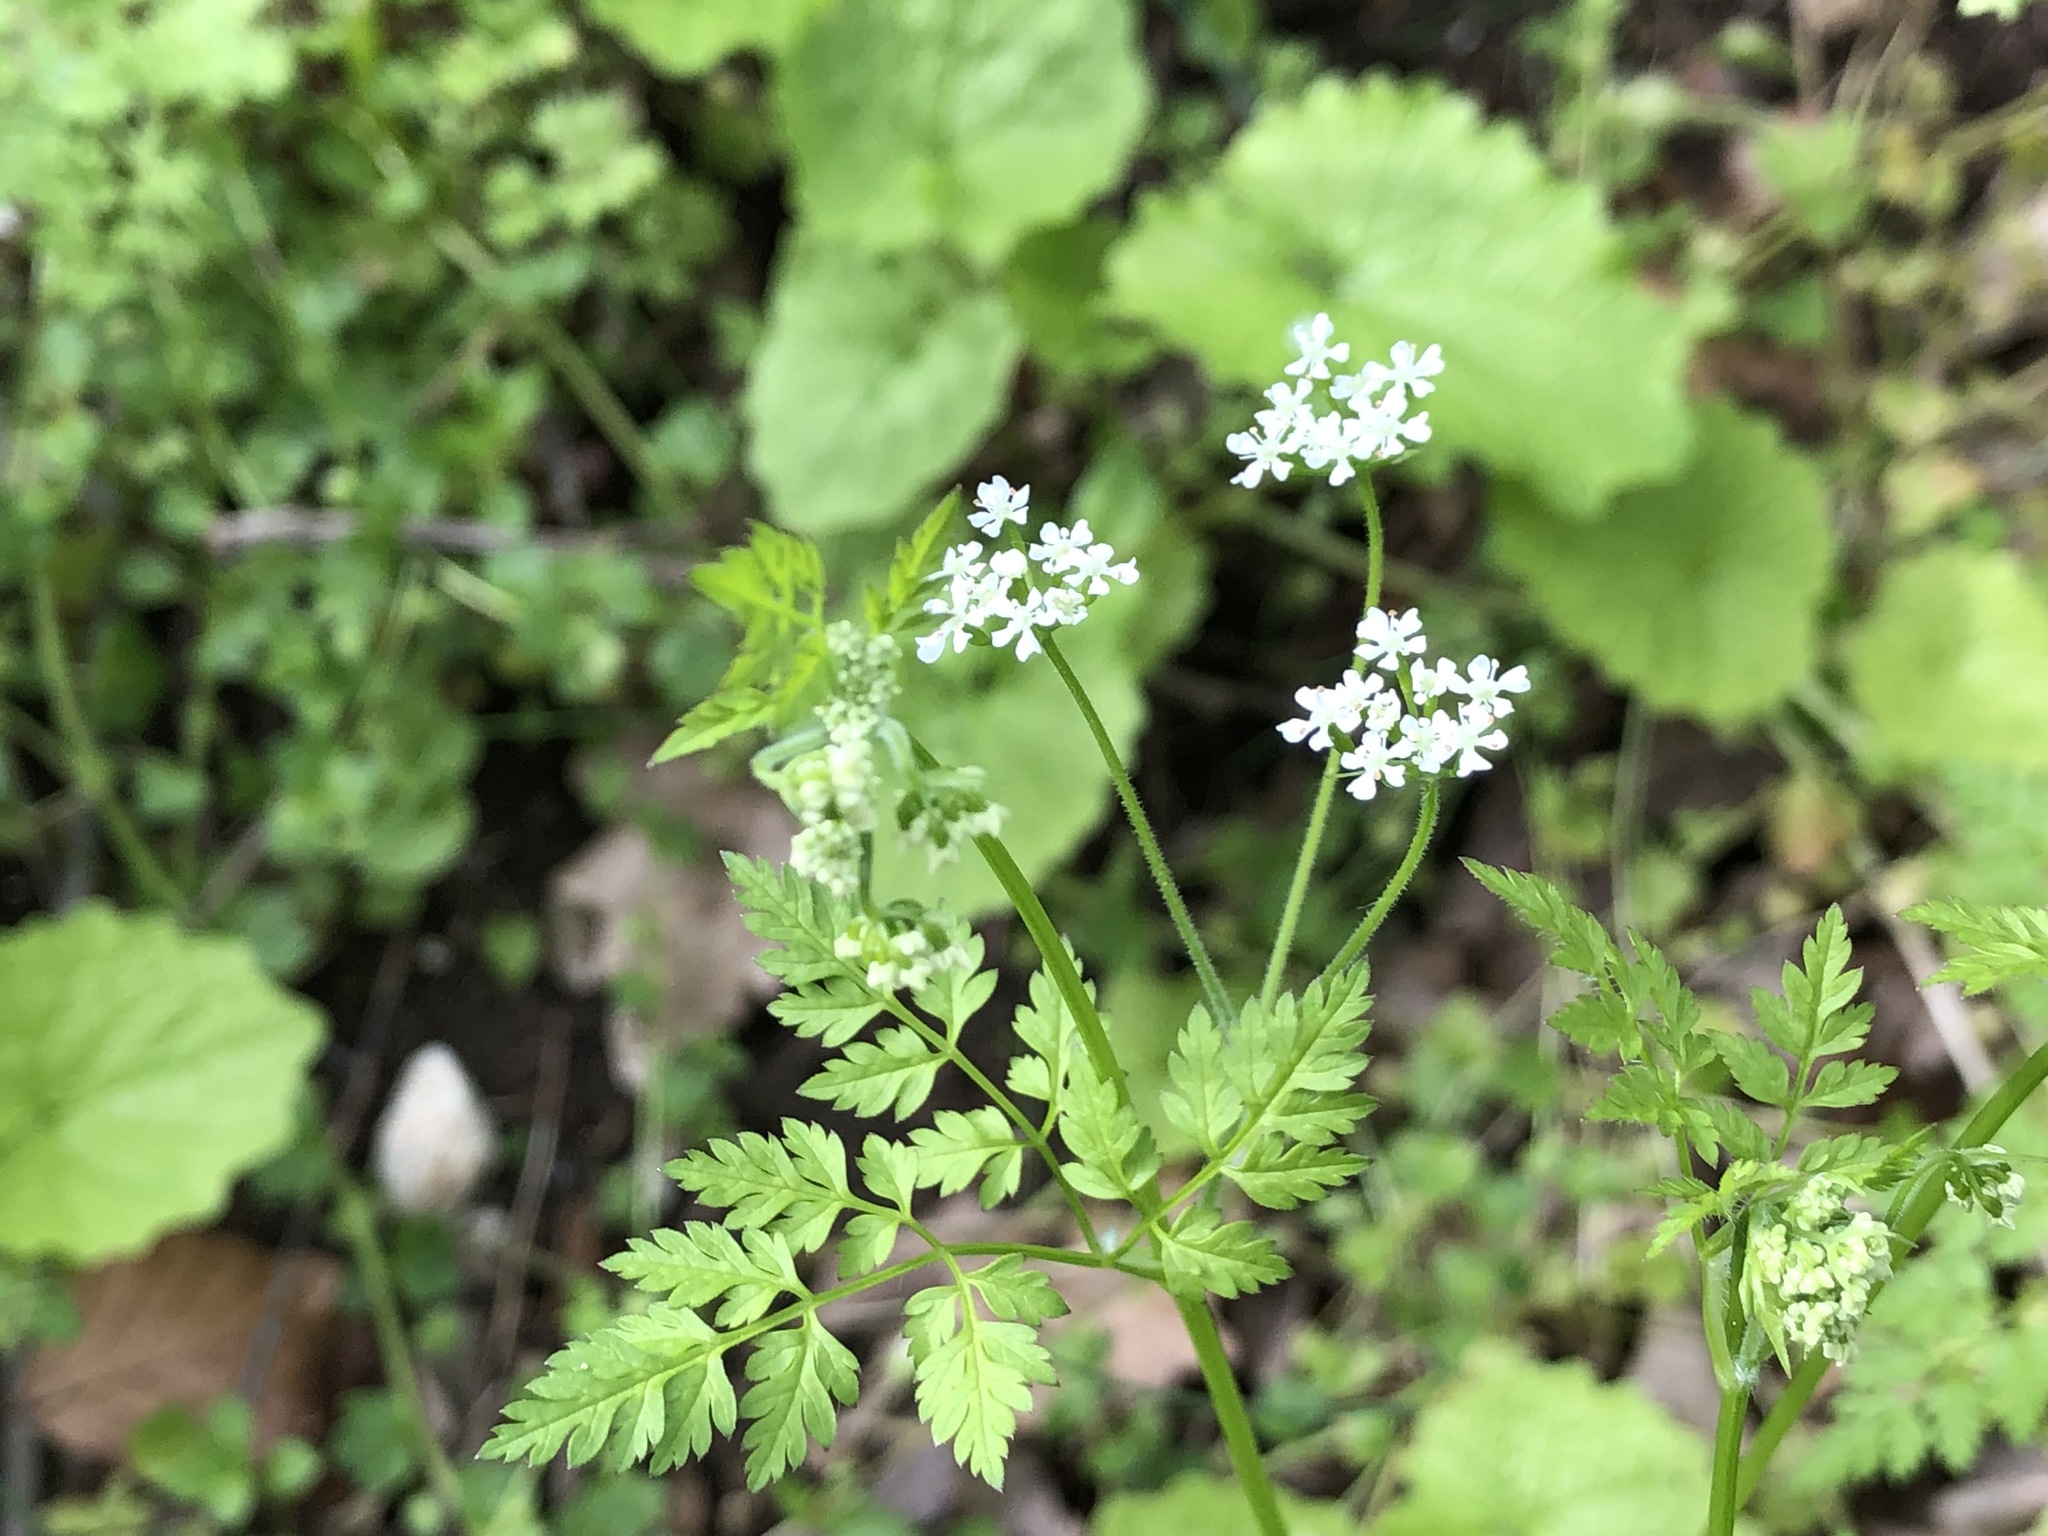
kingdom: Plantae
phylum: Tracheophyta
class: Magnoliopsida
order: Apiales
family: Apiaceae
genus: Anthriscus
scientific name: Anthriscus cerefolium
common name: Garden chervil
